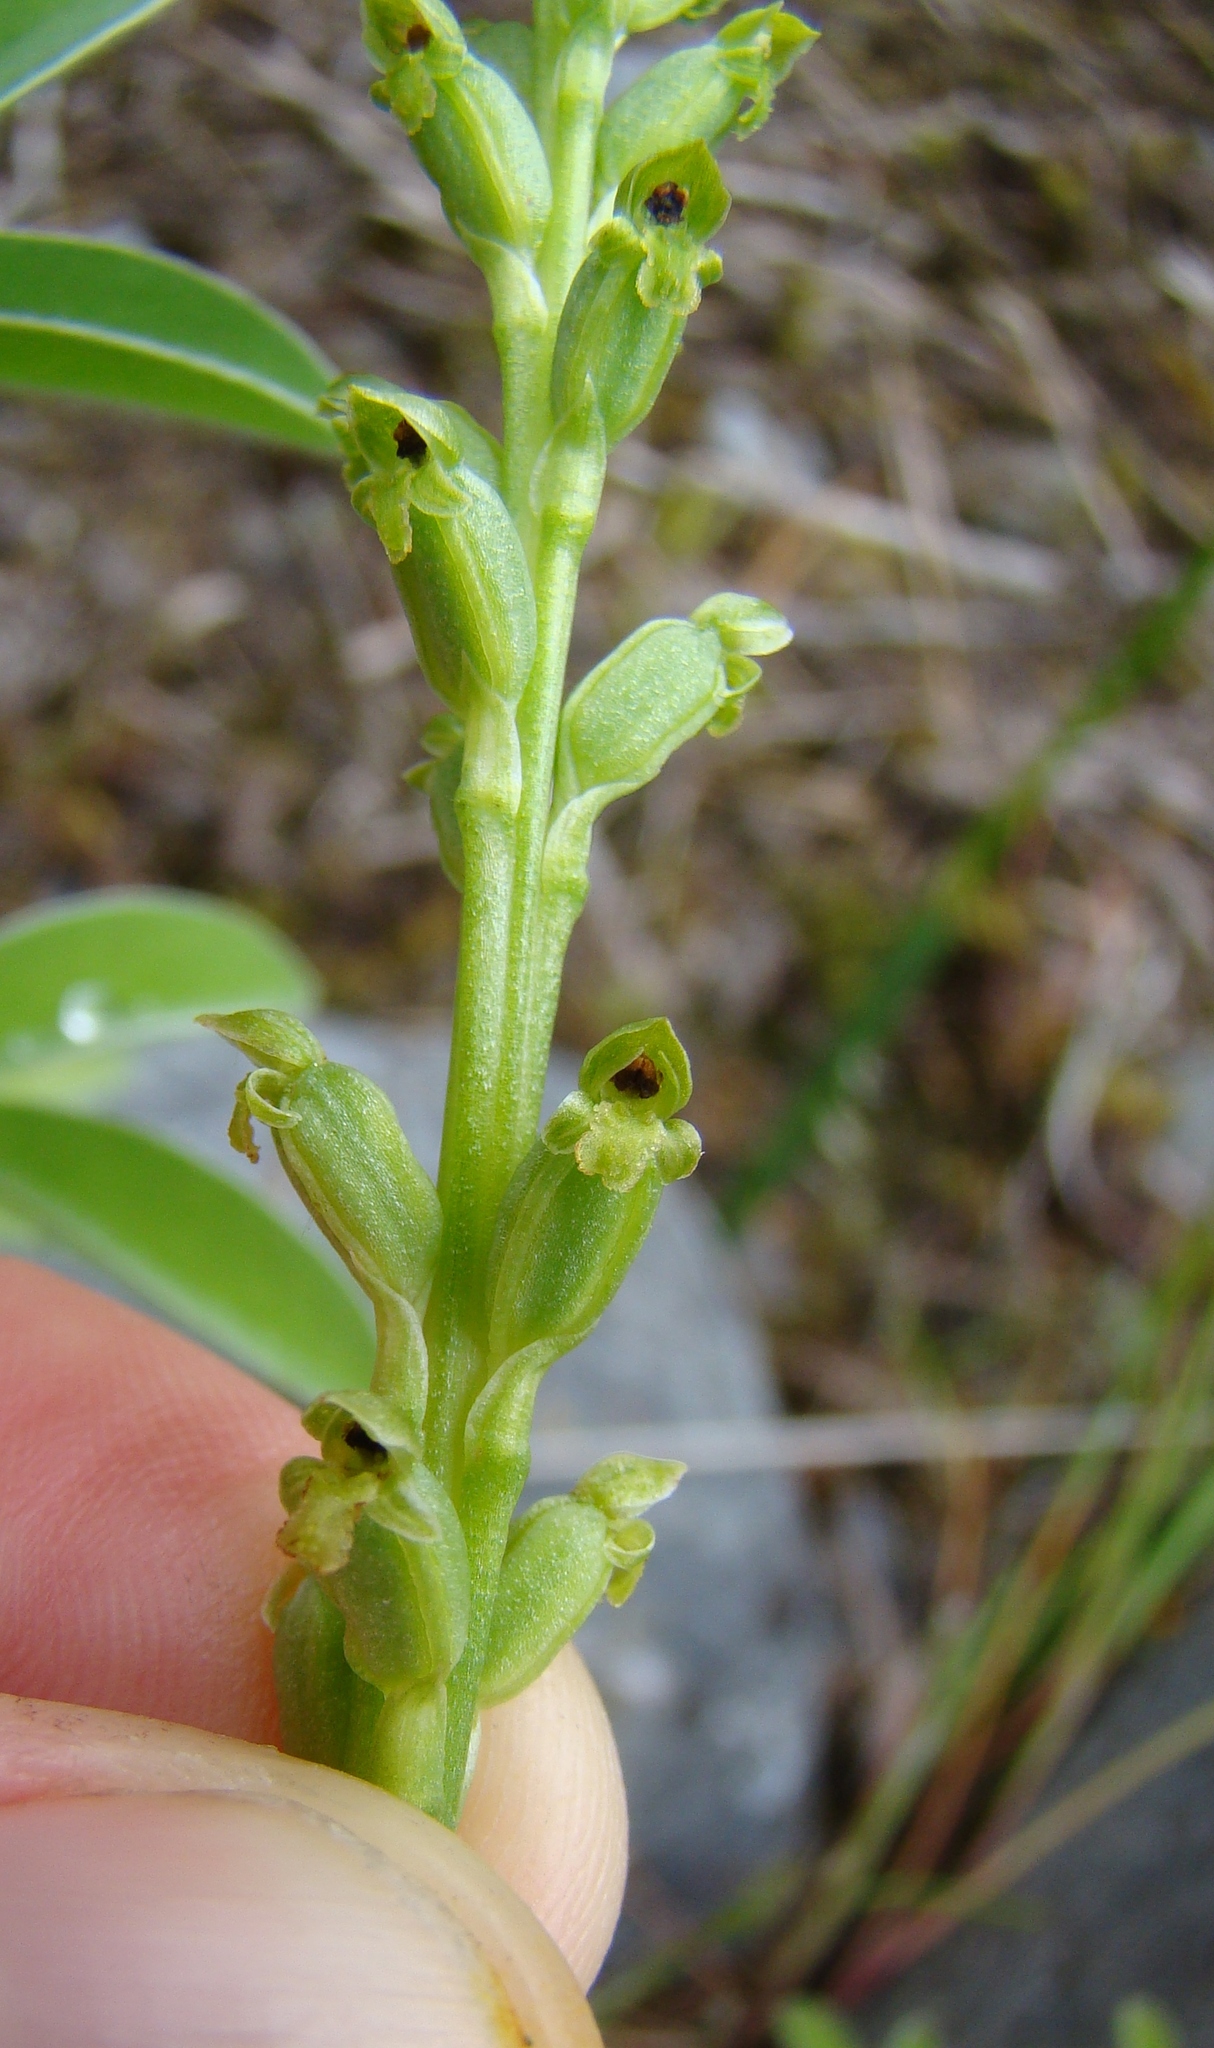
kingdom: Plantae
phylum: Tracheophyta
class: Liliopsida
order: Asparagales
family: Orchidaceae
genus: Microtis
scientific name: Microtis unifolia
